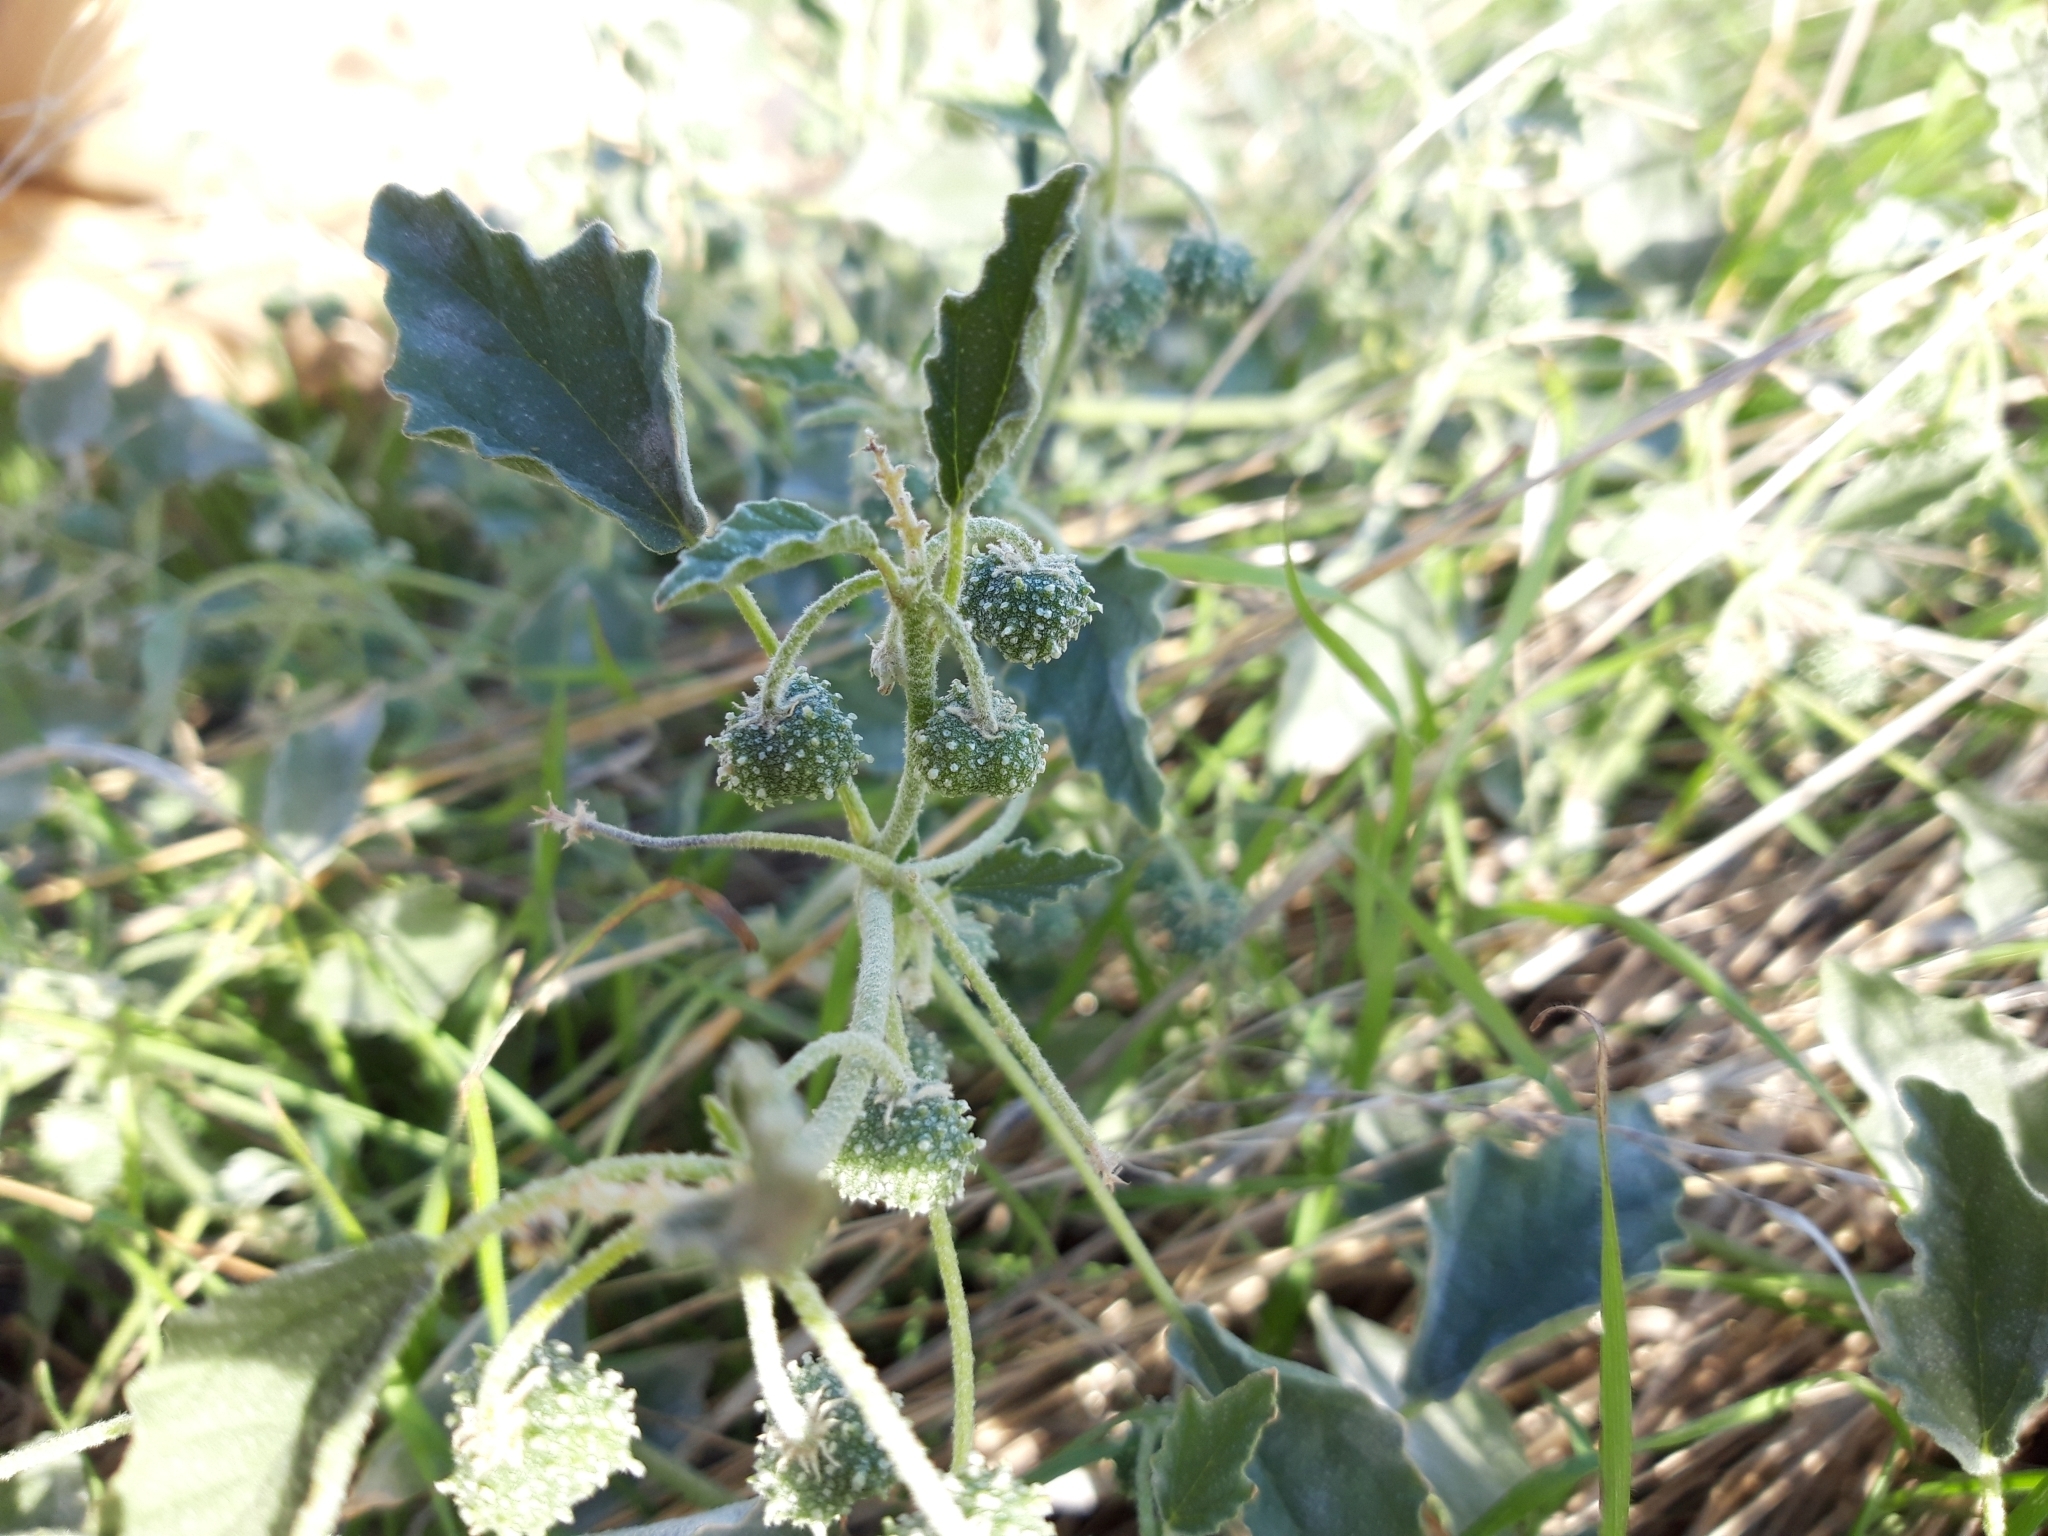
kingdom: Plantae
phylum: Tracheophyta
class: Magnoliopsida
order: Malpighiales
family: Euphorbiaceae
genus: Chrozophora
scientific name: Chrozophora tinctoria
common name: Dyer's litmus
